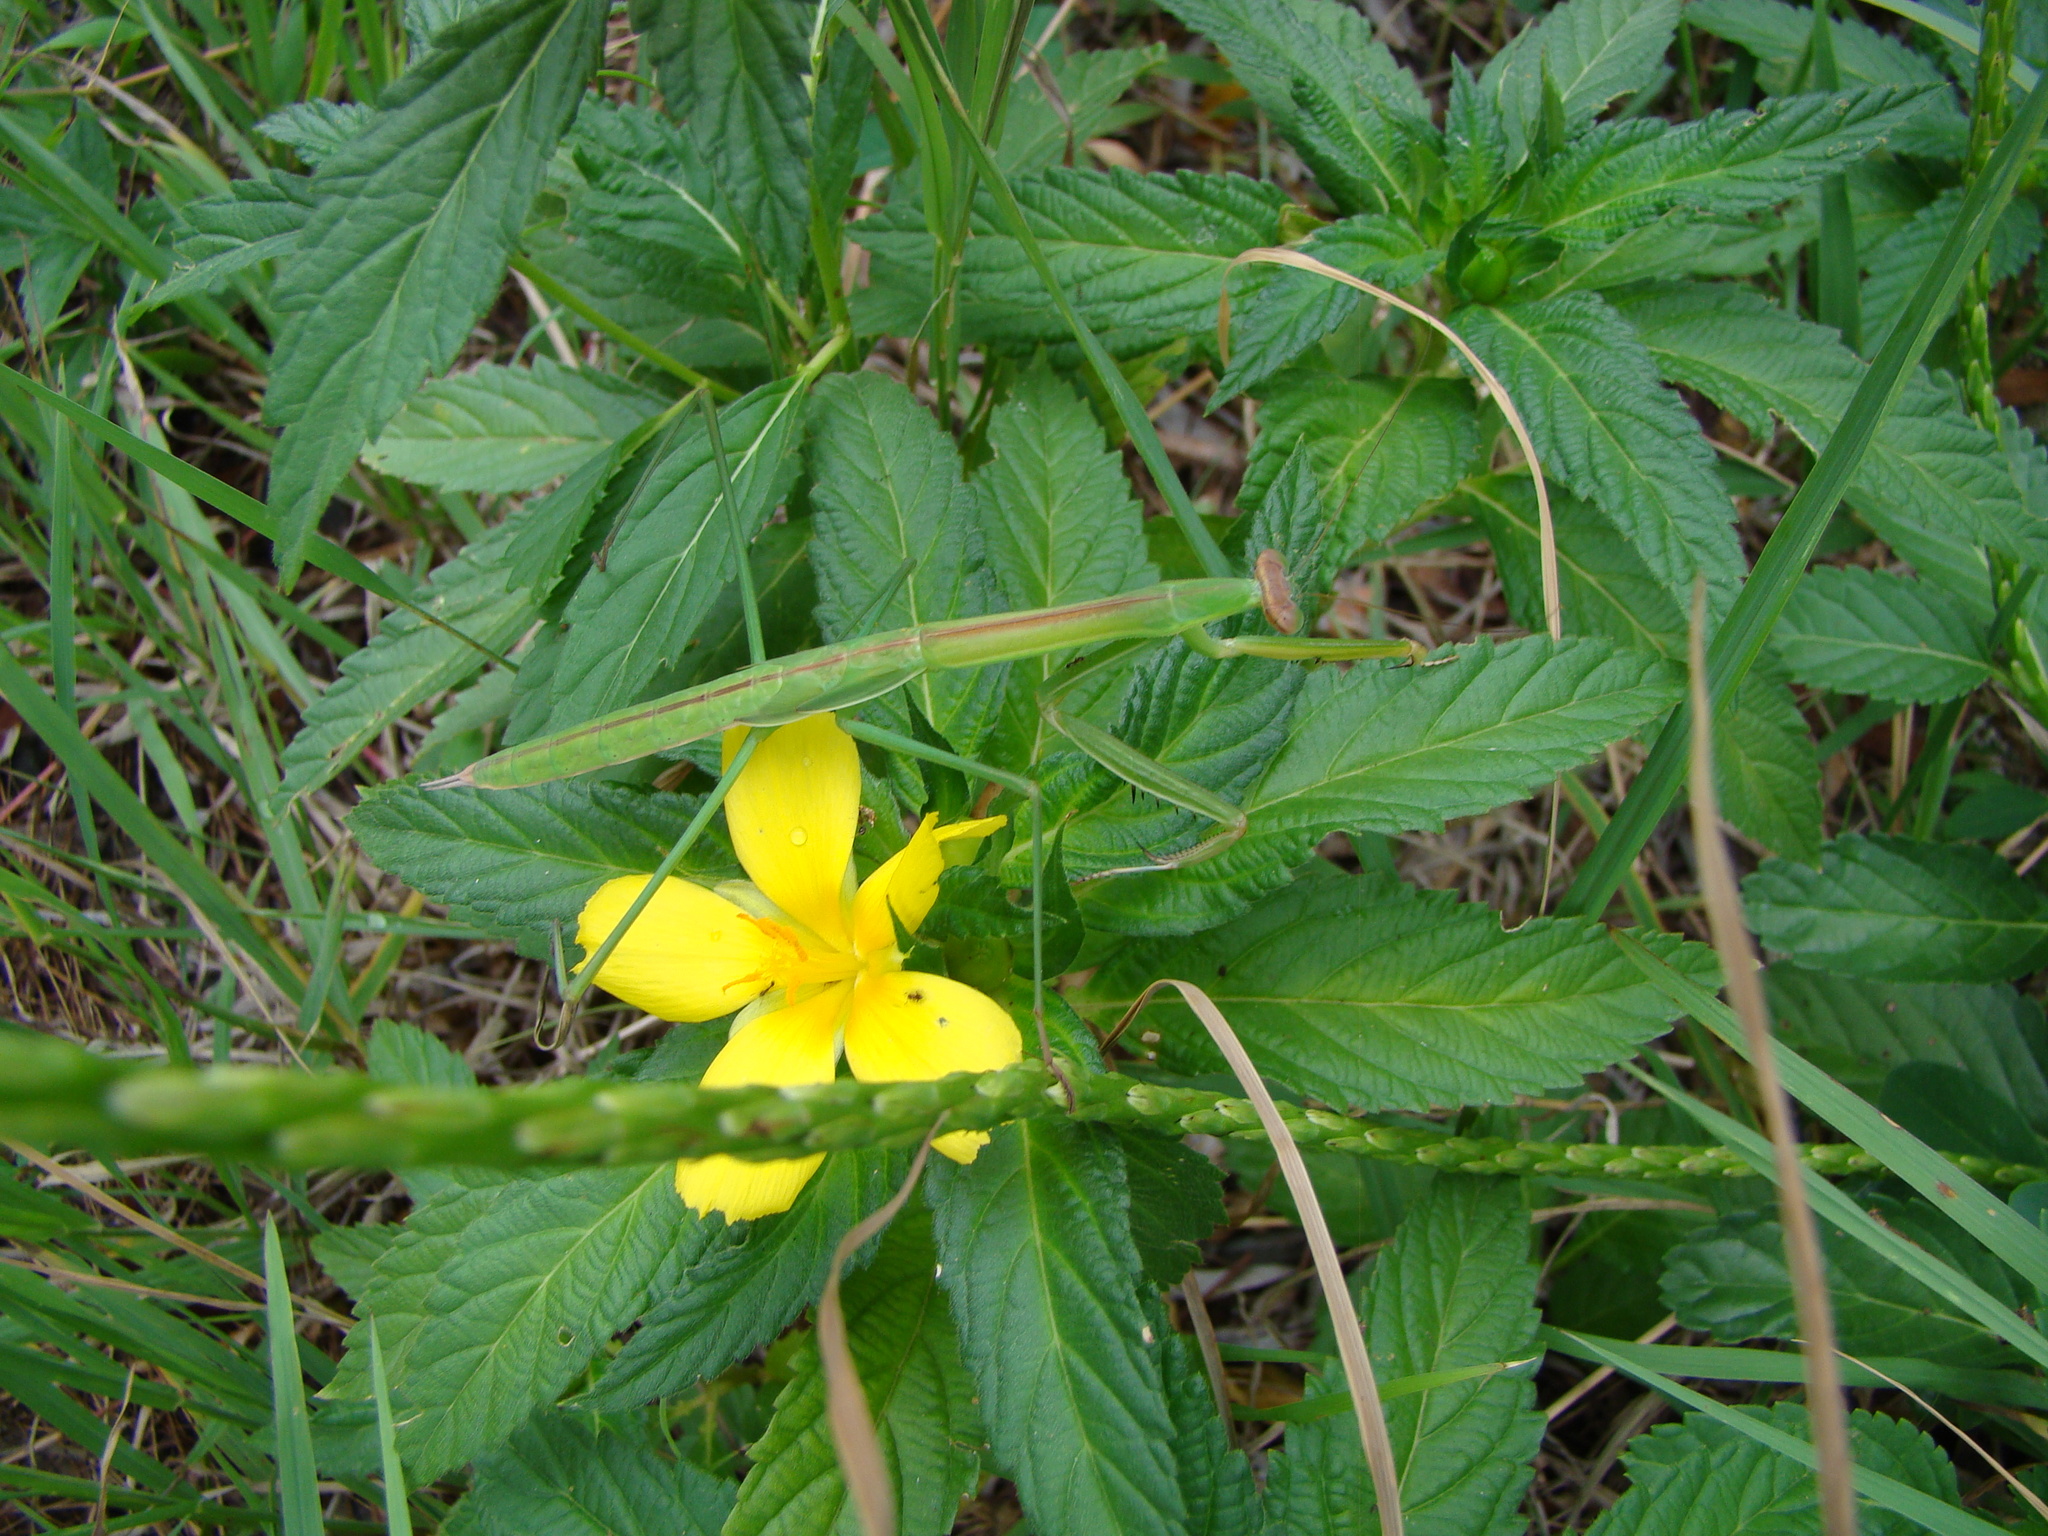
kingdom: Animalia
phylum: Arthropoda
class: Insecta
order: Mantodea
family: Mantidae
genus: Tenodera
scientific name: Tenodera costalis
